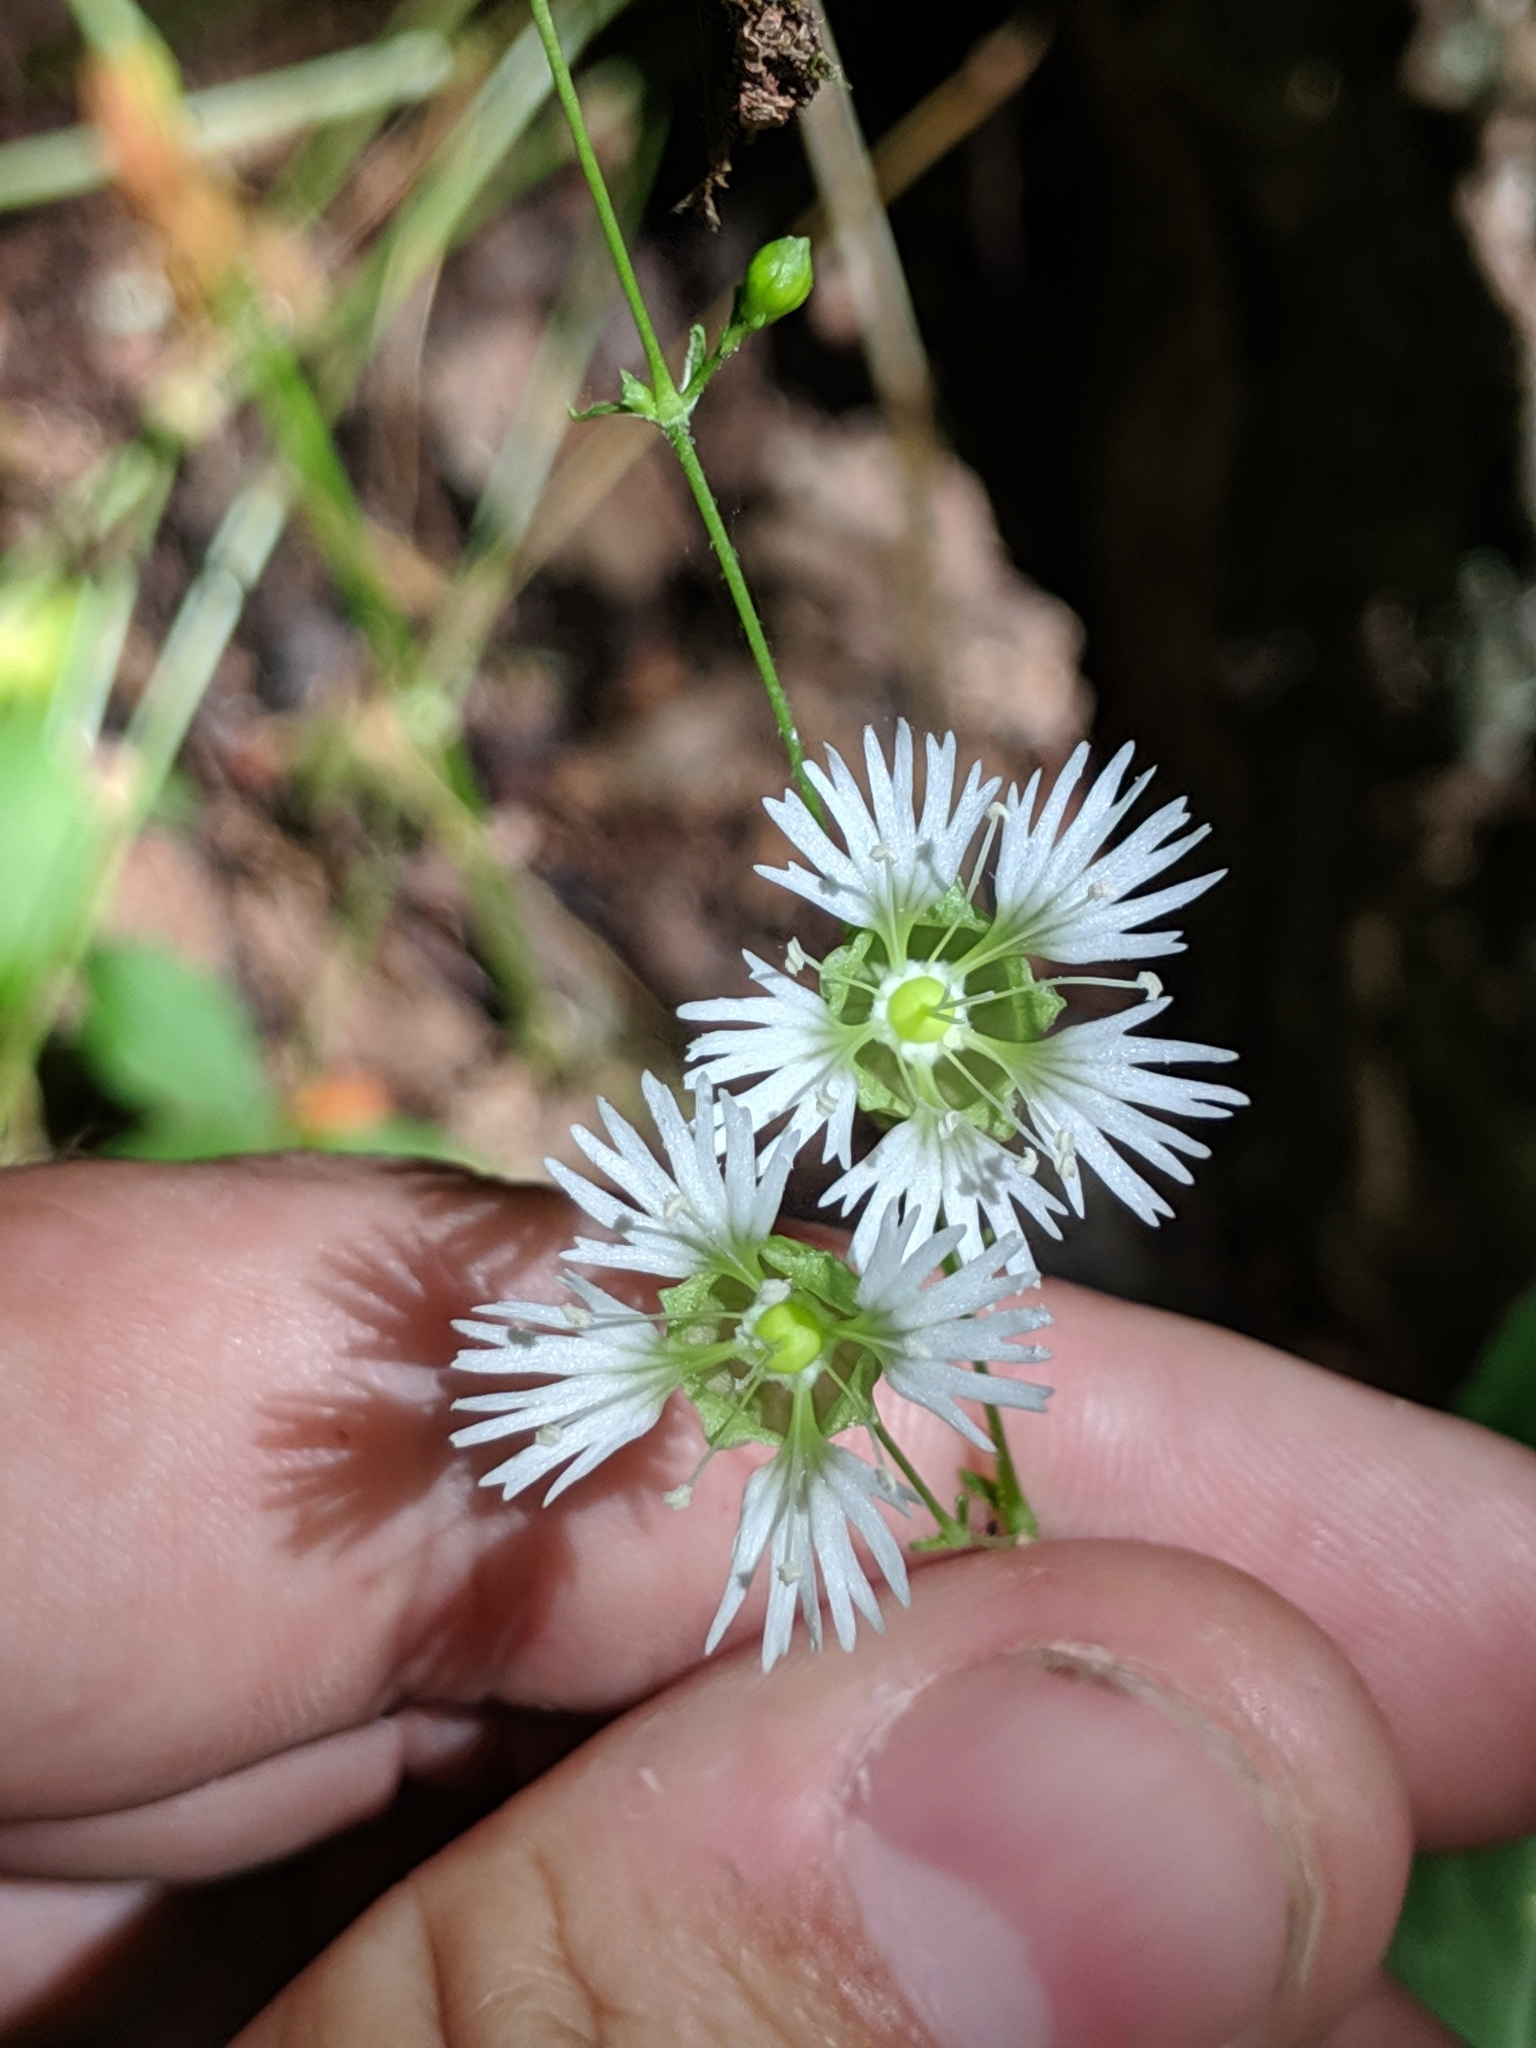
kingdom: Plantae
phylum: Tracheophyta
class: Magnoliopsida
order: Caryophyllales
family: Caryophyllaceae
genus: Silene
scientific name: Silene stellata
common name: Starry campion
